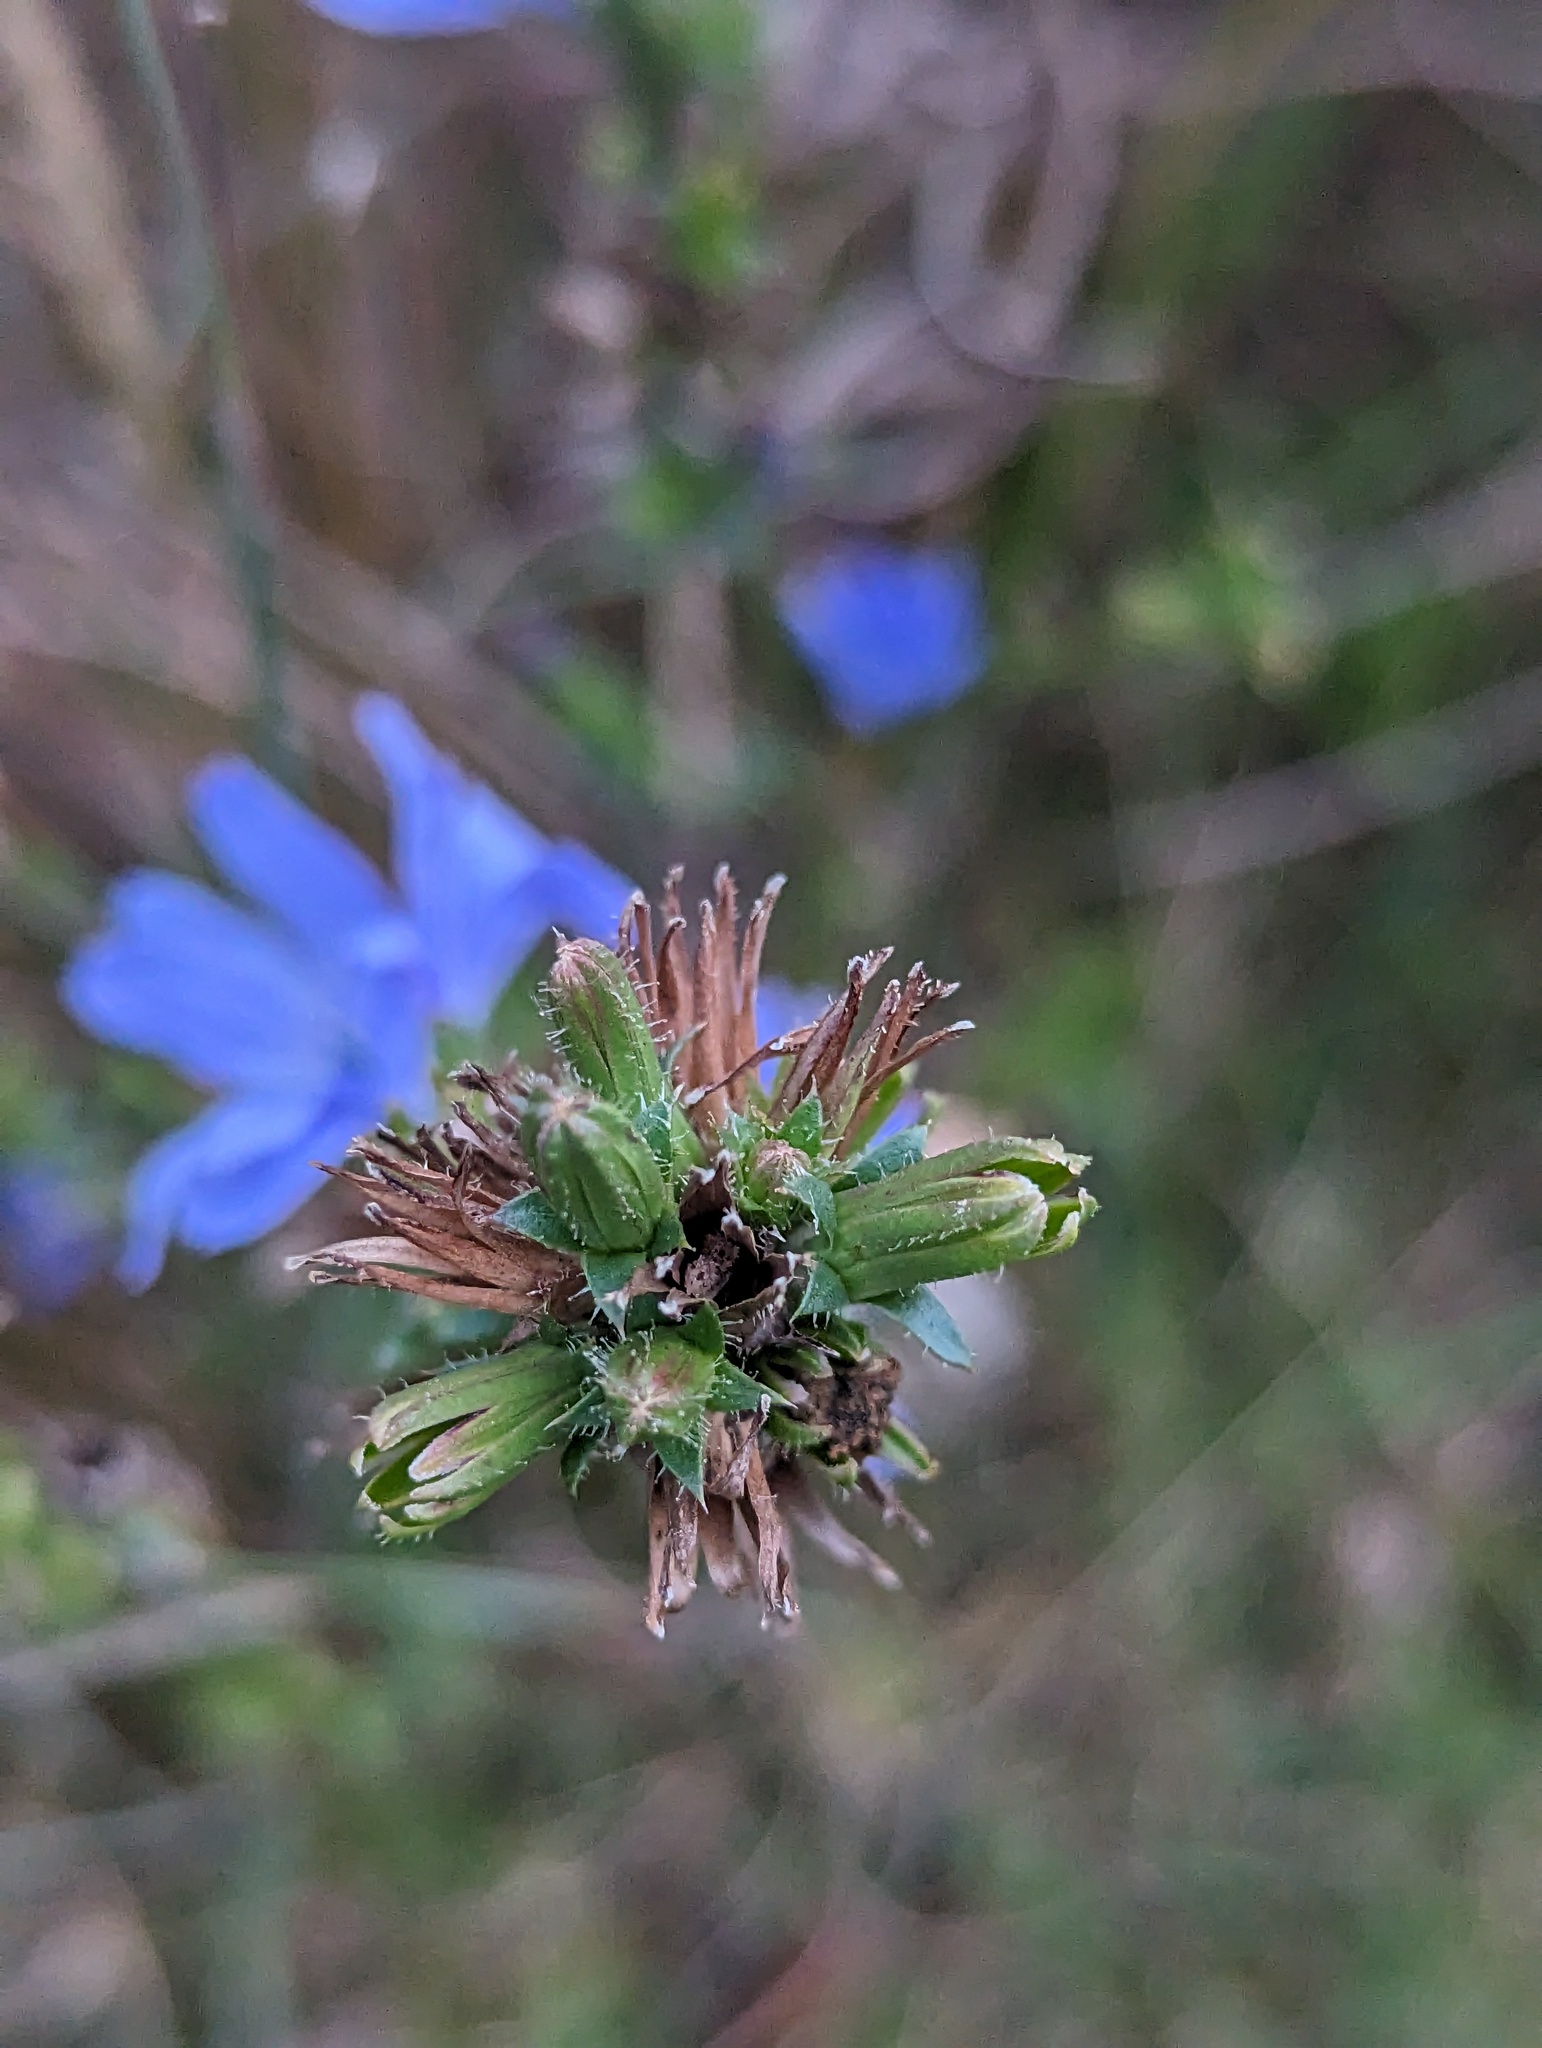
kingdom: Plantae
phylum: Tracheophyta
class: Magnoliopsida
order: Asterales
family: Asteraceae
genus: Cichorium
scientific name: Cichorium intybus
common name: Chicory
